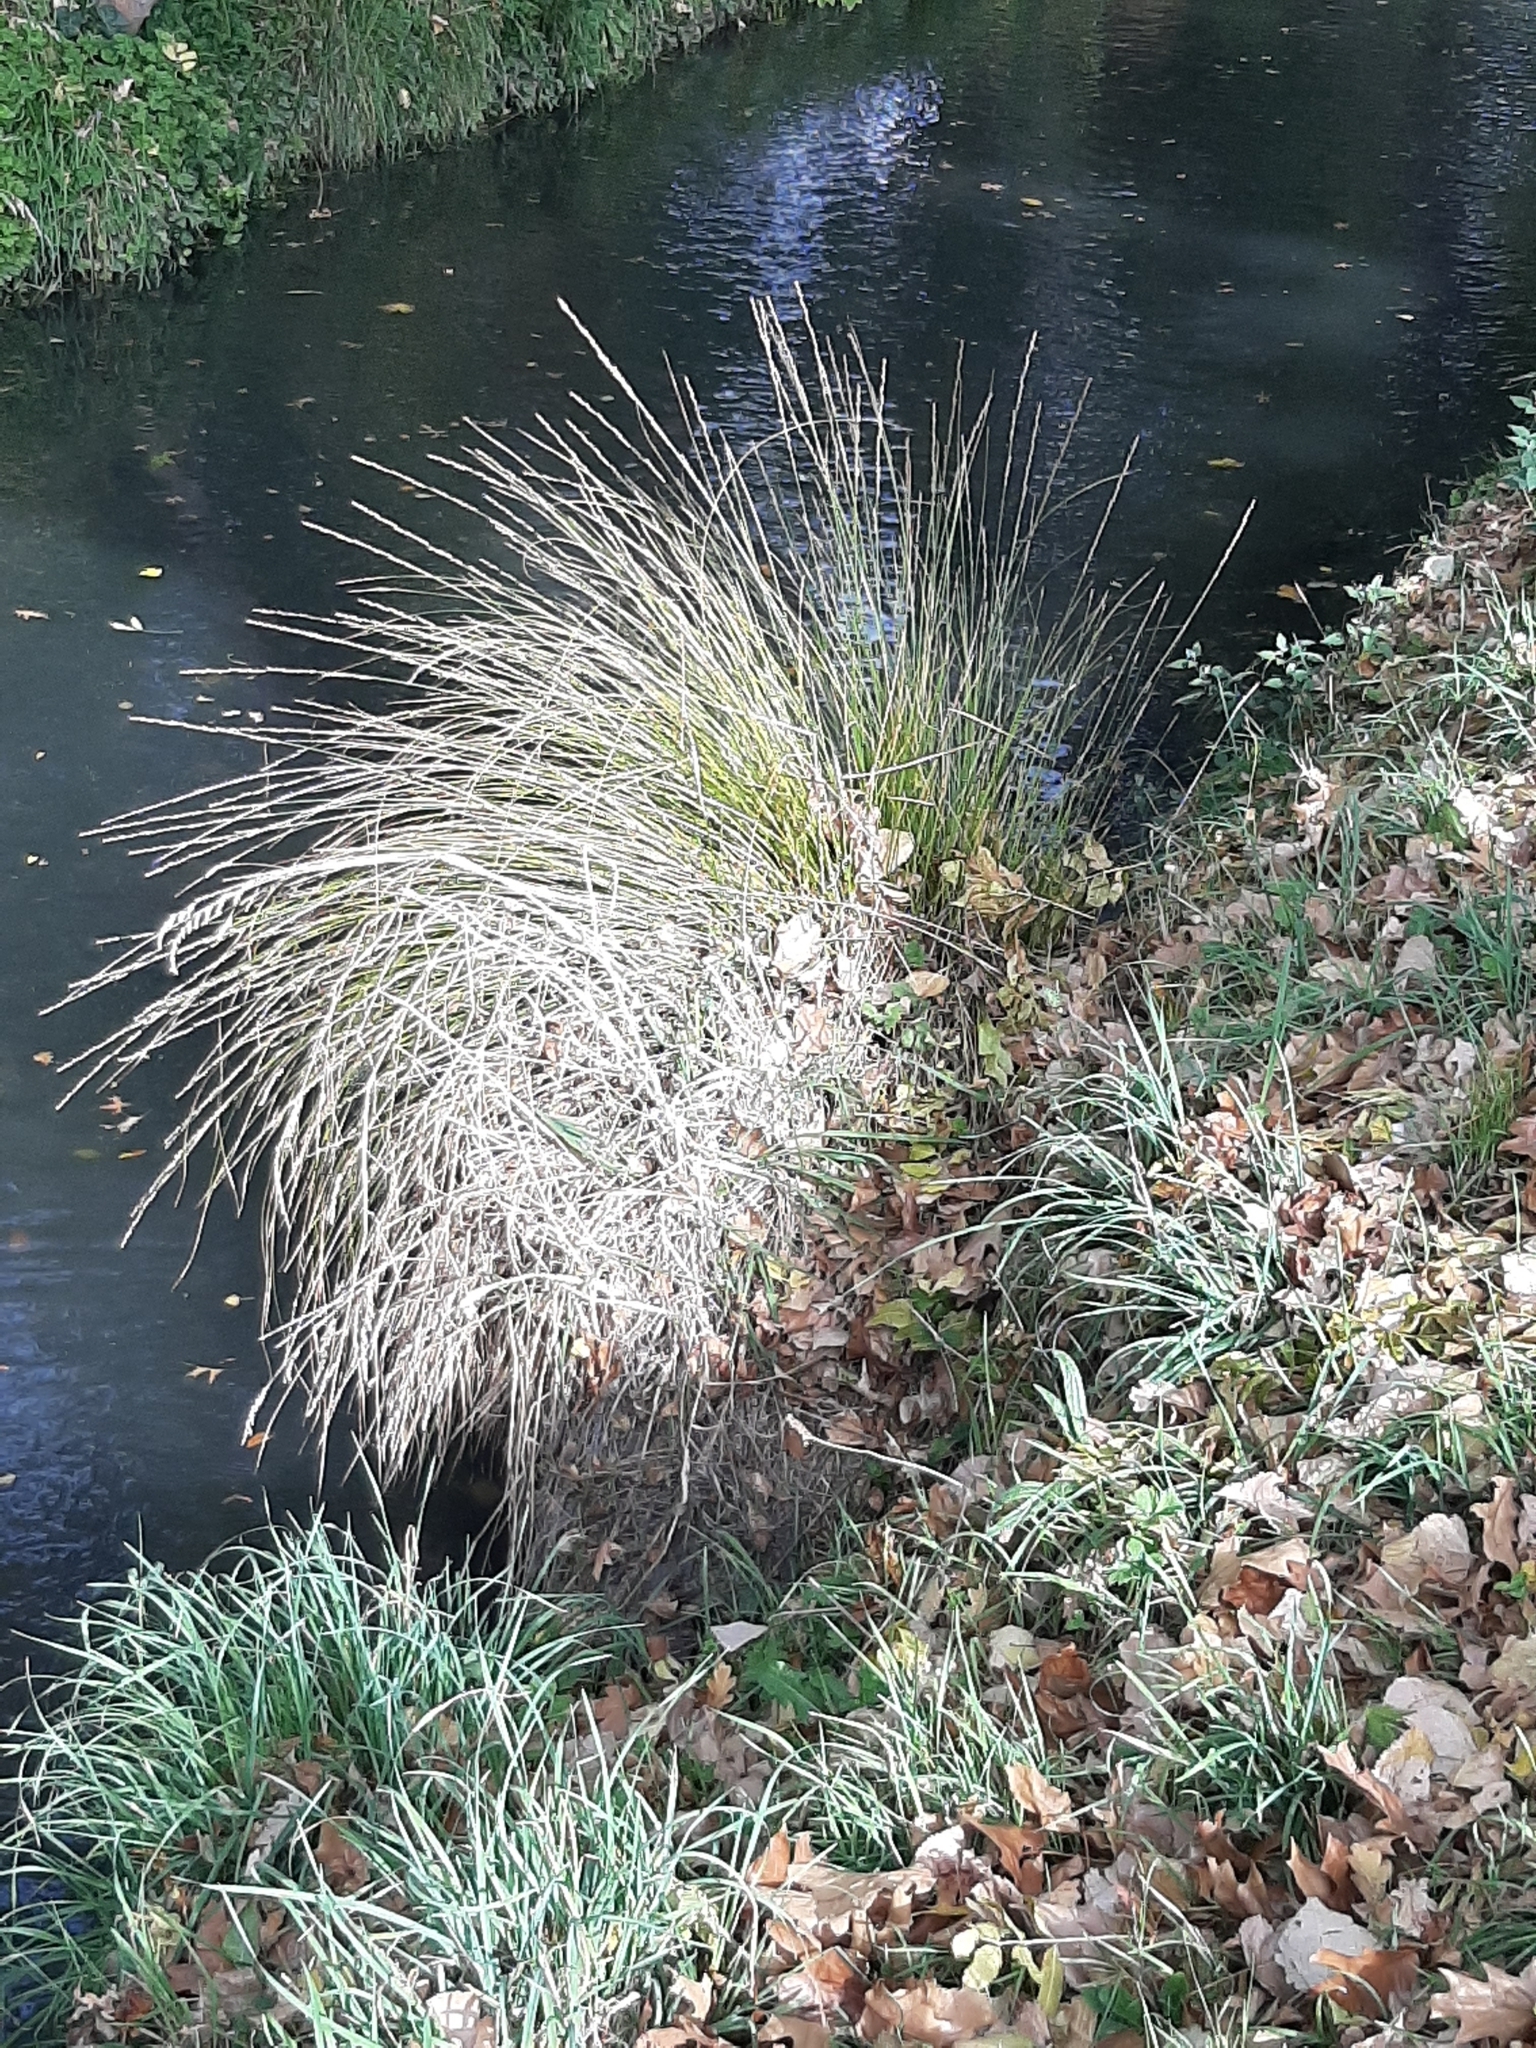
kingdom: Plantae
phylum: Tracheophyta
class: Liliopsida
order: Poales
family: Cyperaceae
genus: Carex
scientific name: Carex virgata
